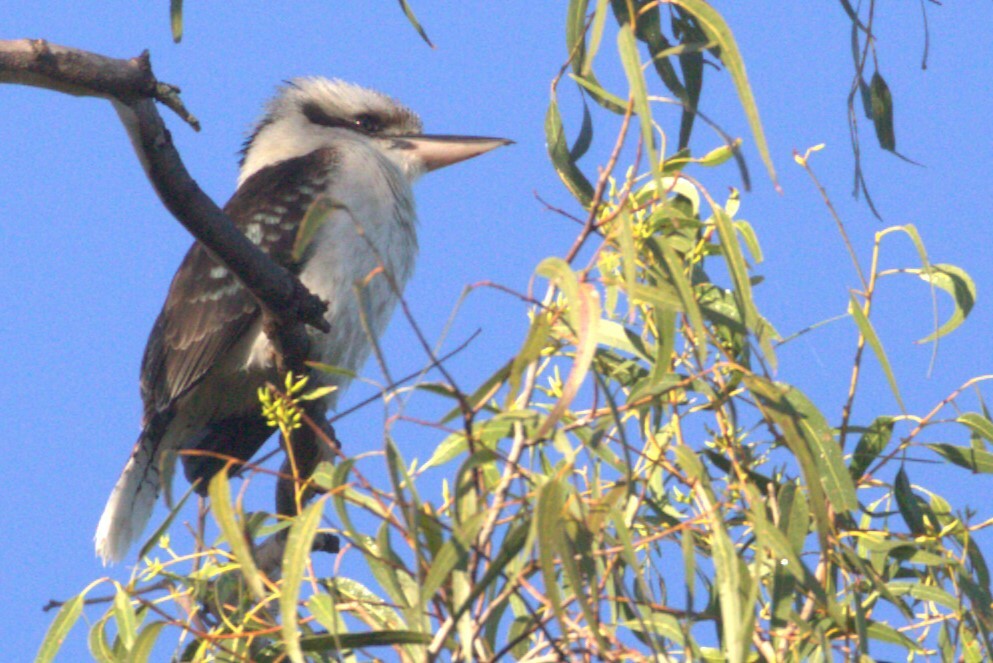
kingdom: Animalia
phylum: Chordata
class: Aves
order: Coraciiformes
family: Alcedinidae
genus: Dacelo
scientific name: Dacelo novaeguineae
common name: Laughing kookaburra
